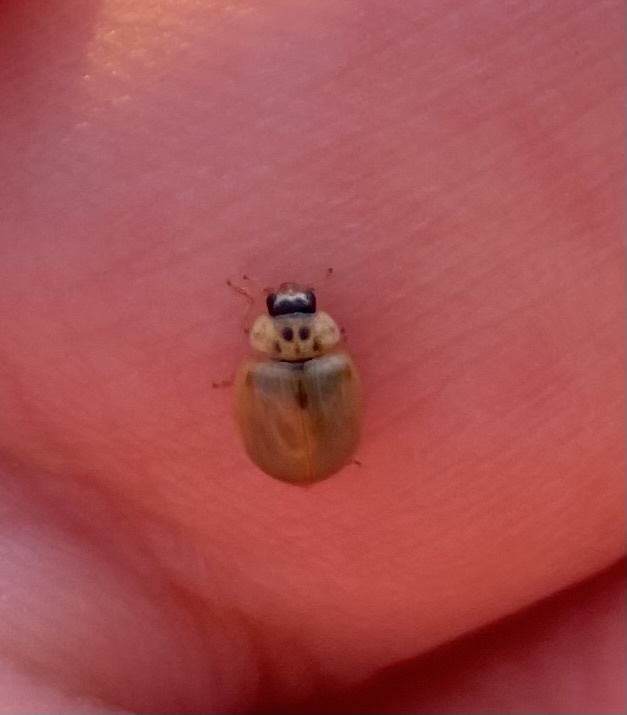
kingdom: Animalia
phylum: Arthropoda
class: Insecta
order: Coleoptera
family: Coccinellidae
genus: Adalia
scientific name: Adalia decempunctata
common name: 10-spot ladybird
